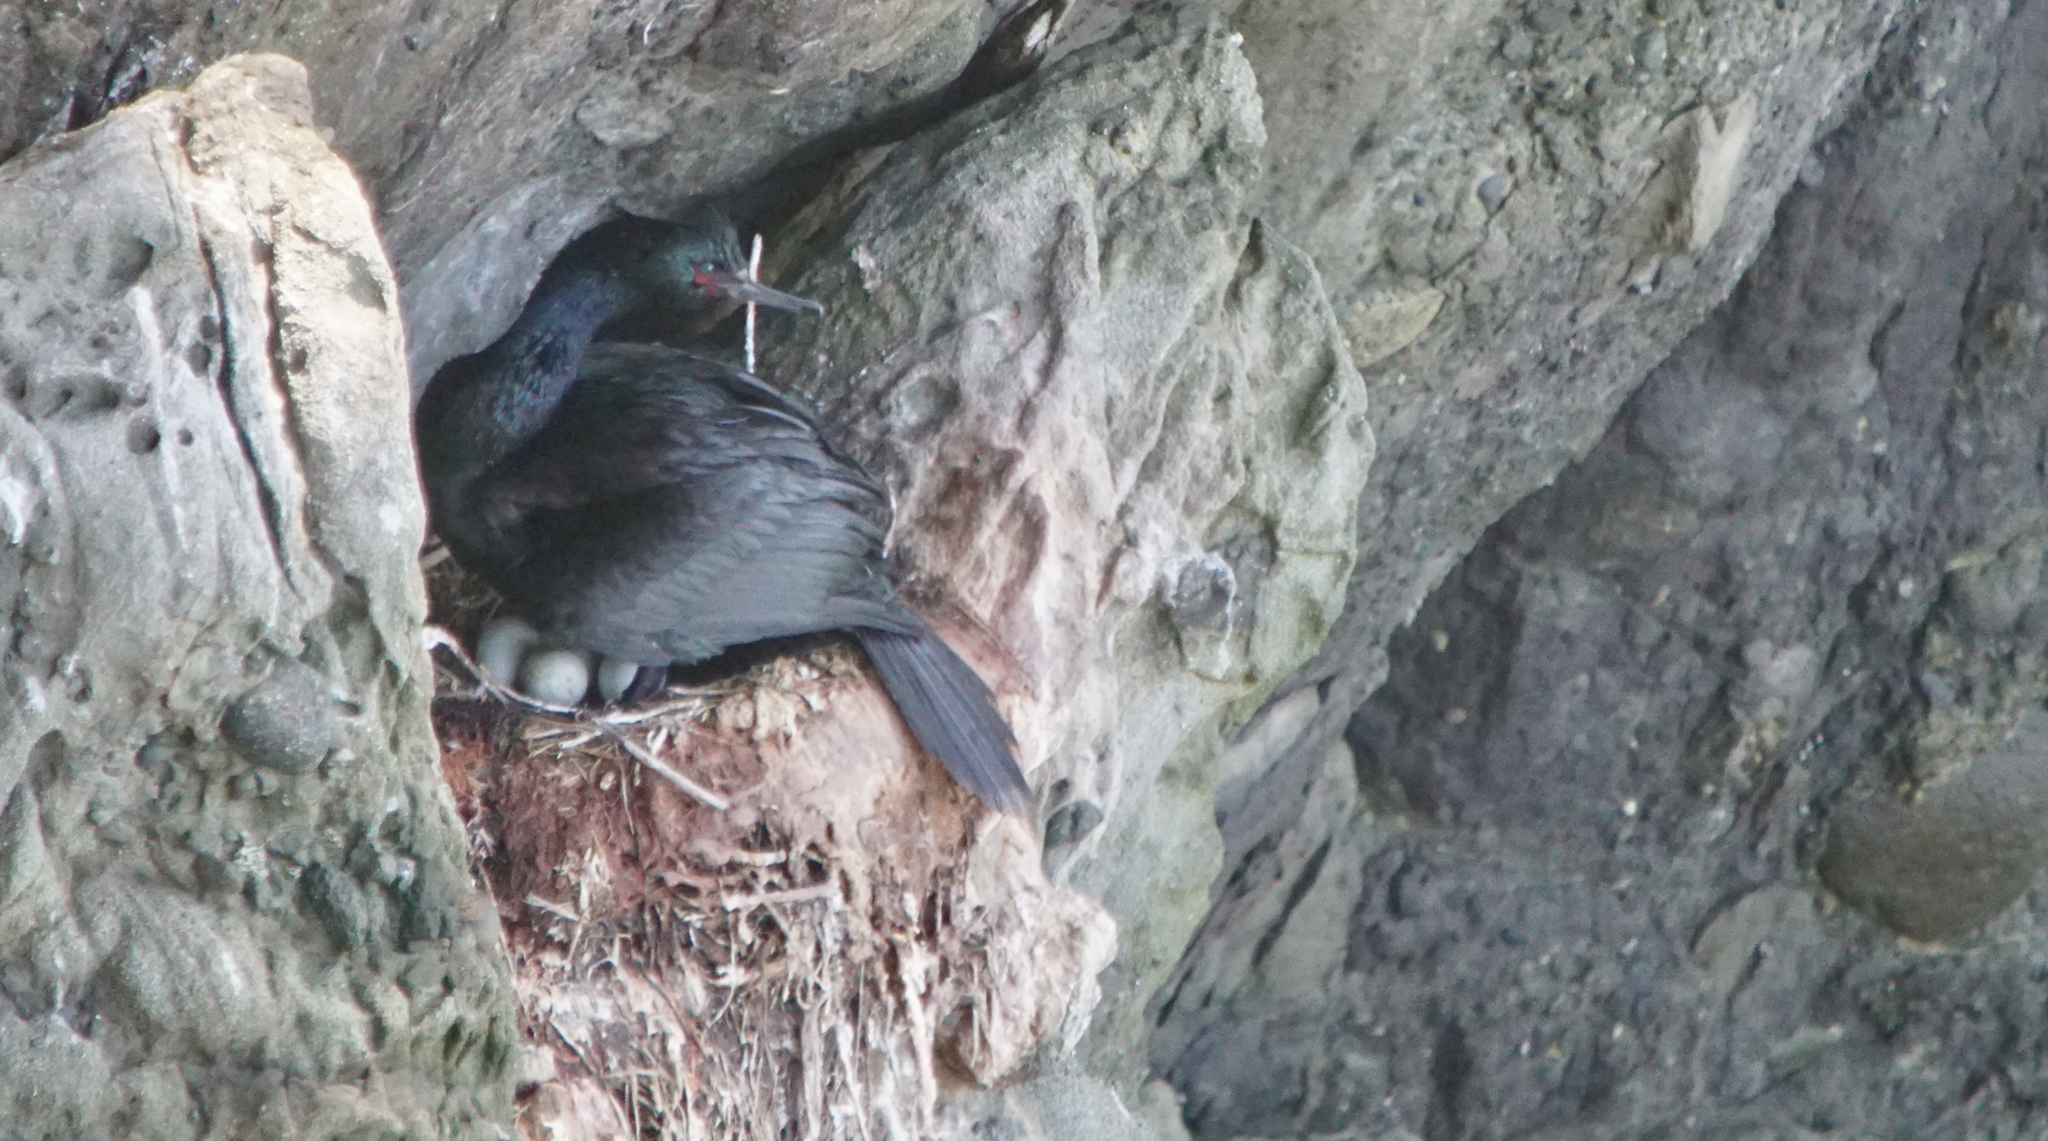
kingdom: Animalia
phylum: Chordata
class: Aves
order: Suliformes
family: Phalacrocoracidae
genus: Phalacrocorax
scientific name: Phalacrocorax pelagicus
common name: Pelagic cormorant
